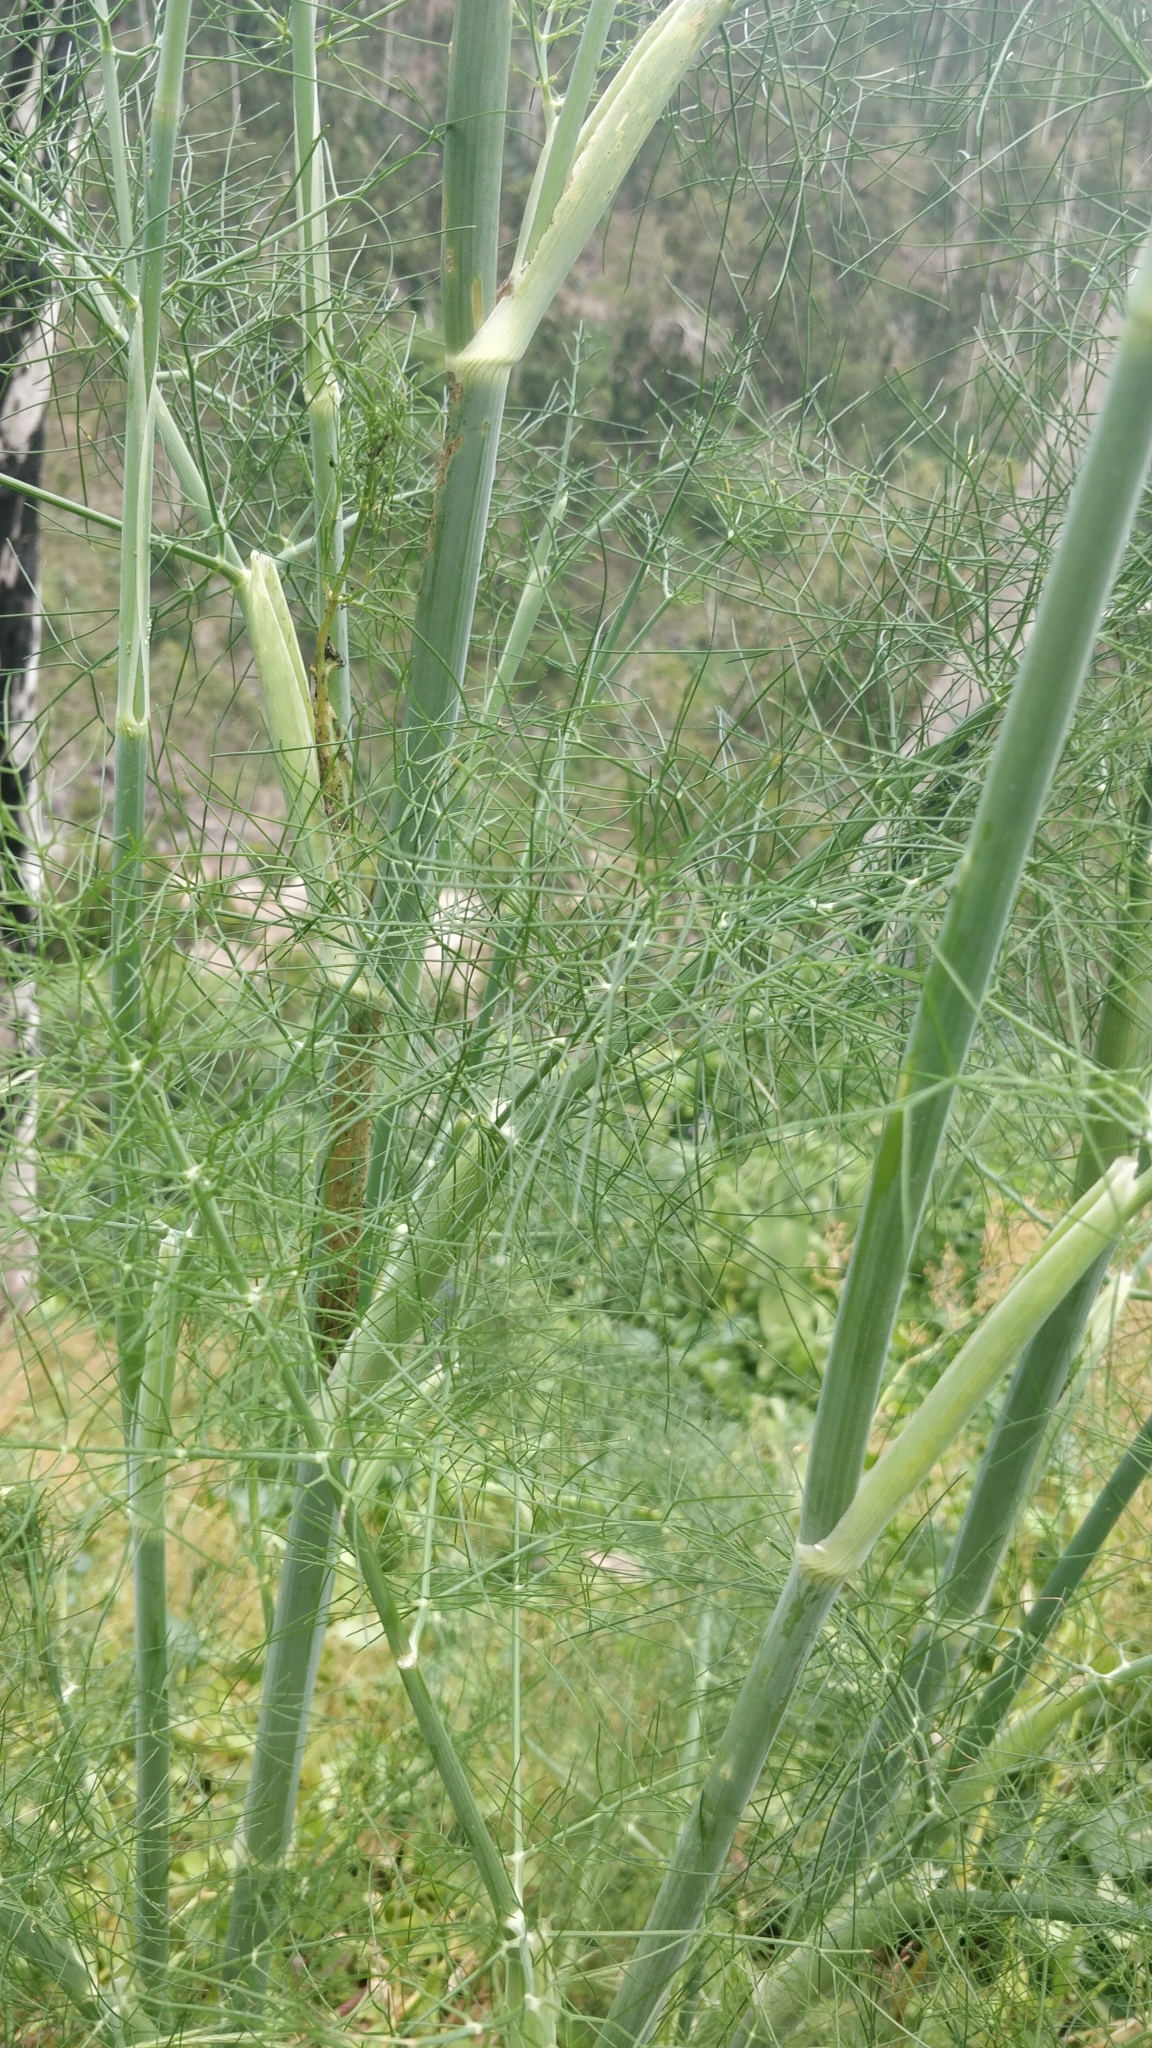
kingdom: Plantae
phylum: Tracheophyta
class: Magnoliopsida
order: Apiales
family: Apiaceae
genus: Foeniculum
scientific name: Foeniculum vulgare
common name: Fennel
